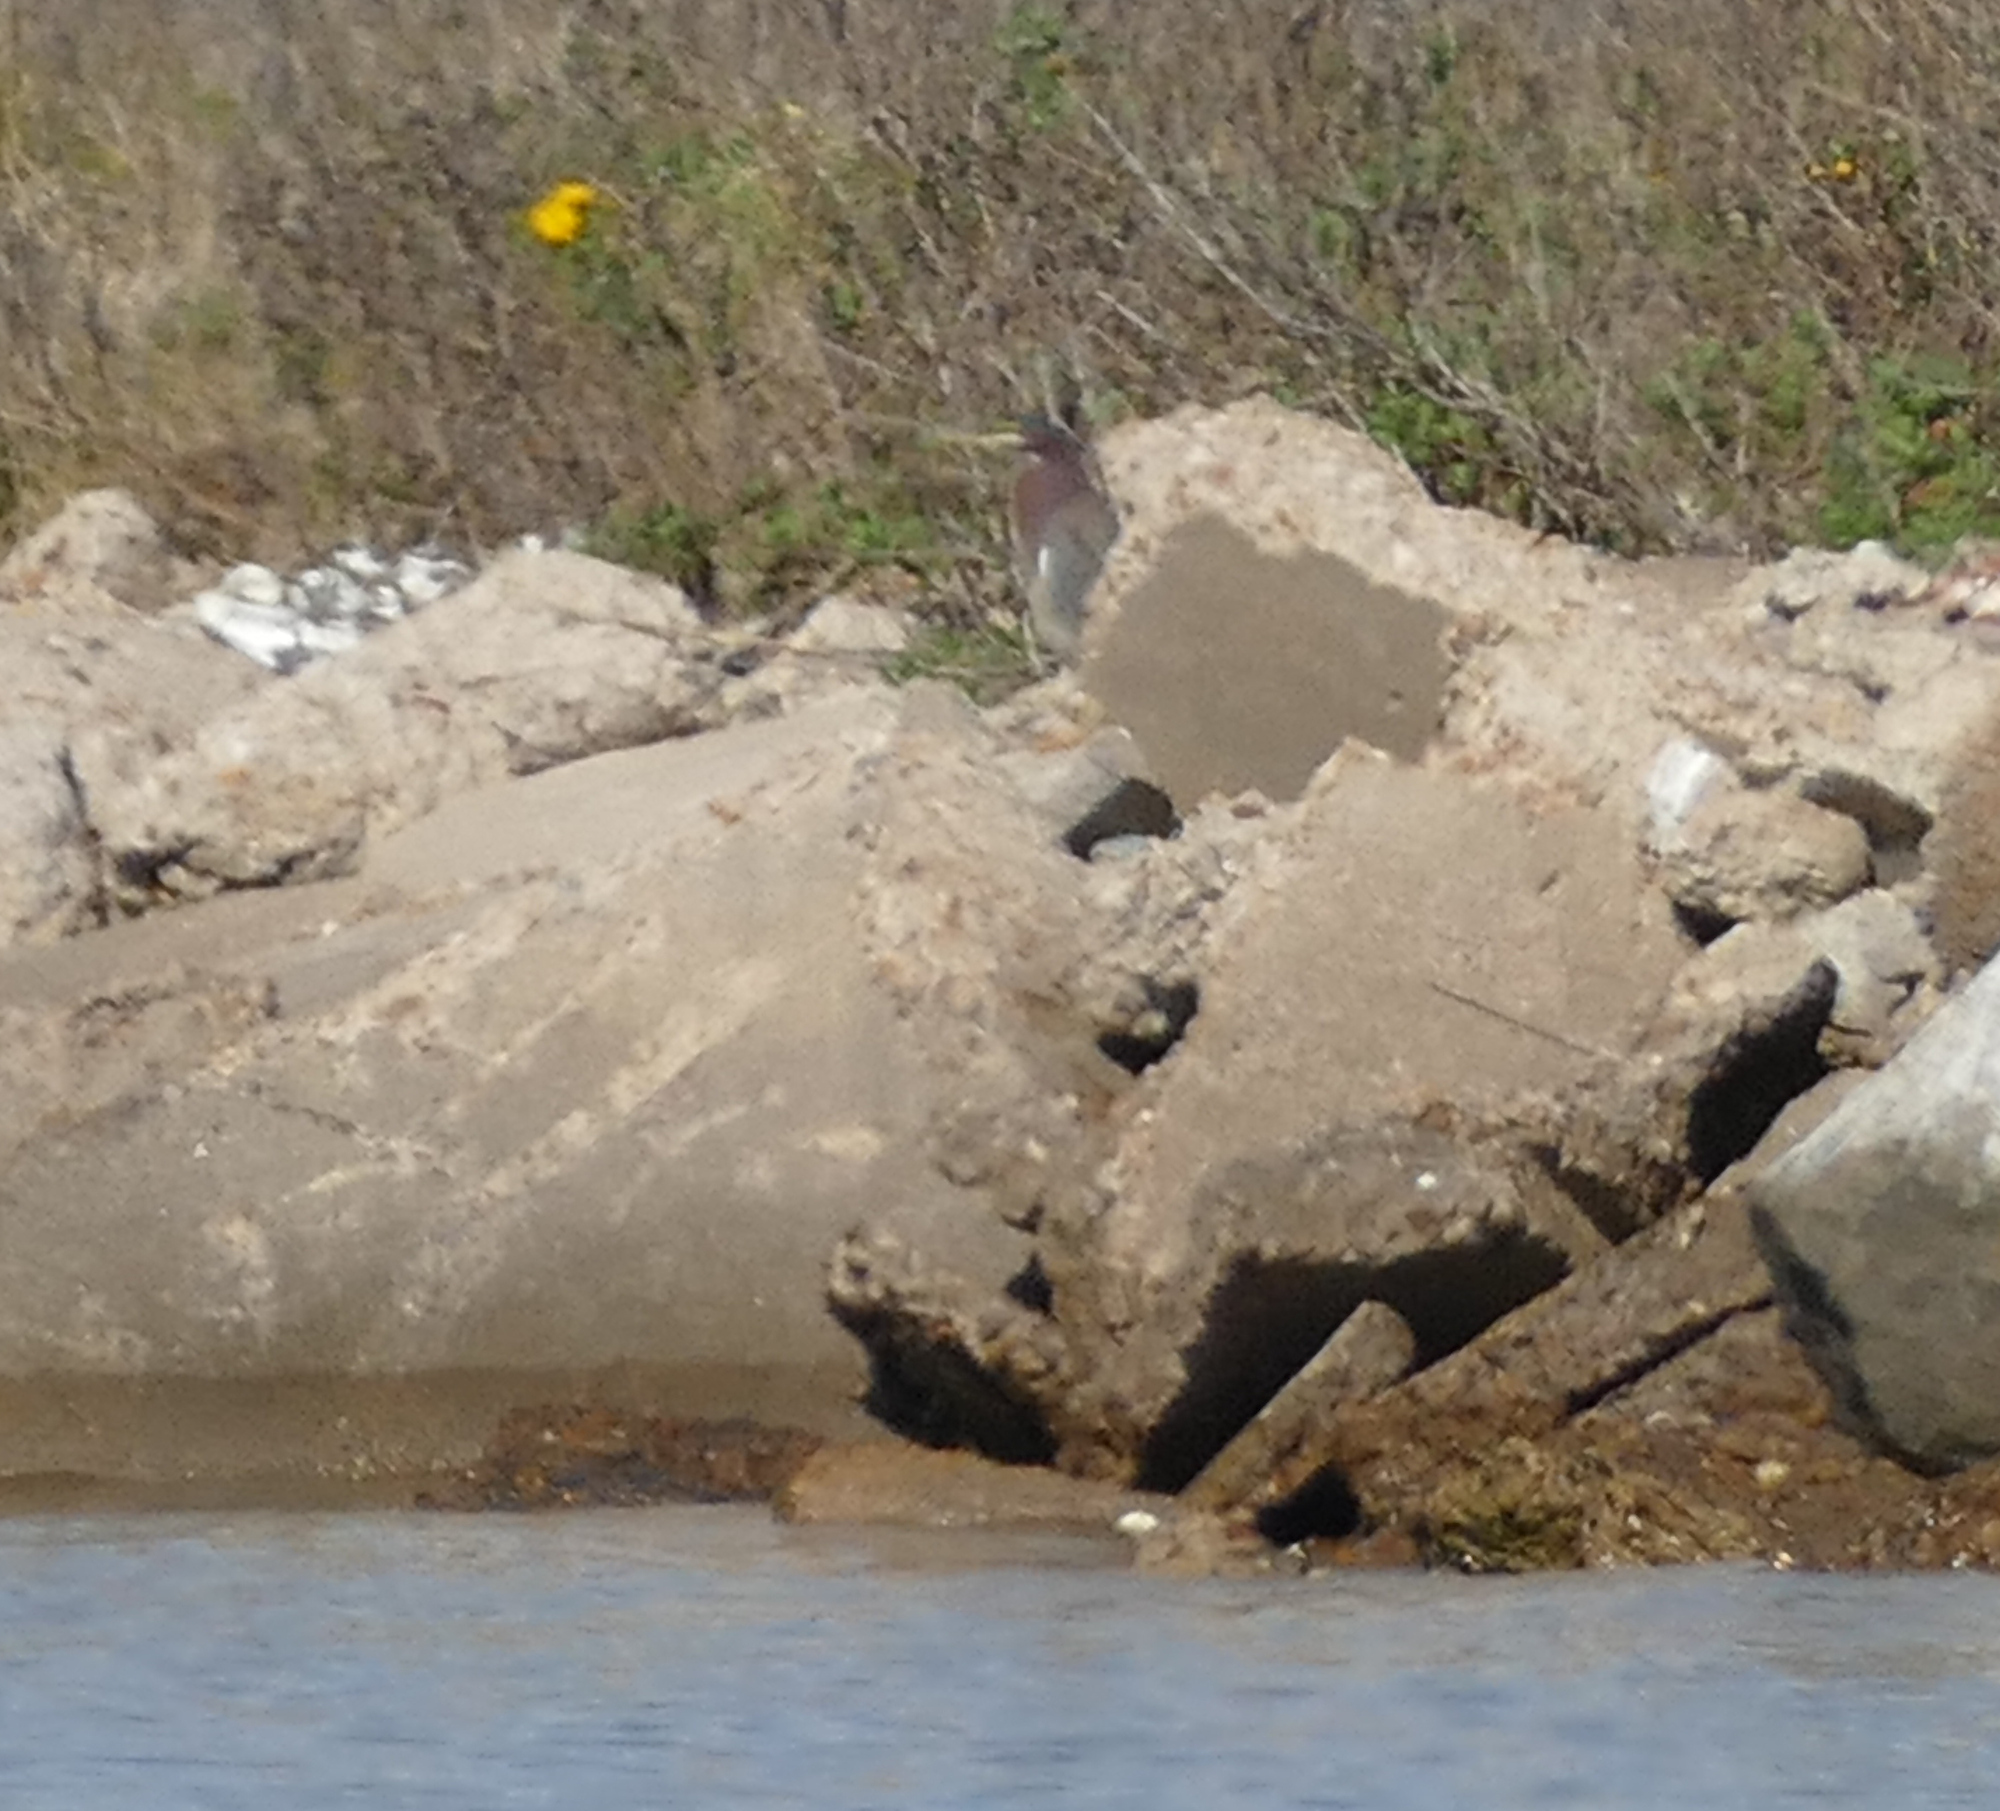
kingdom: Animalia
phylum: Chordata
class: Aves
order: Pelecaniformes
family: Ardeidae
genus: Butorides
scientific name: Butorides virescens
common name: Green heron
